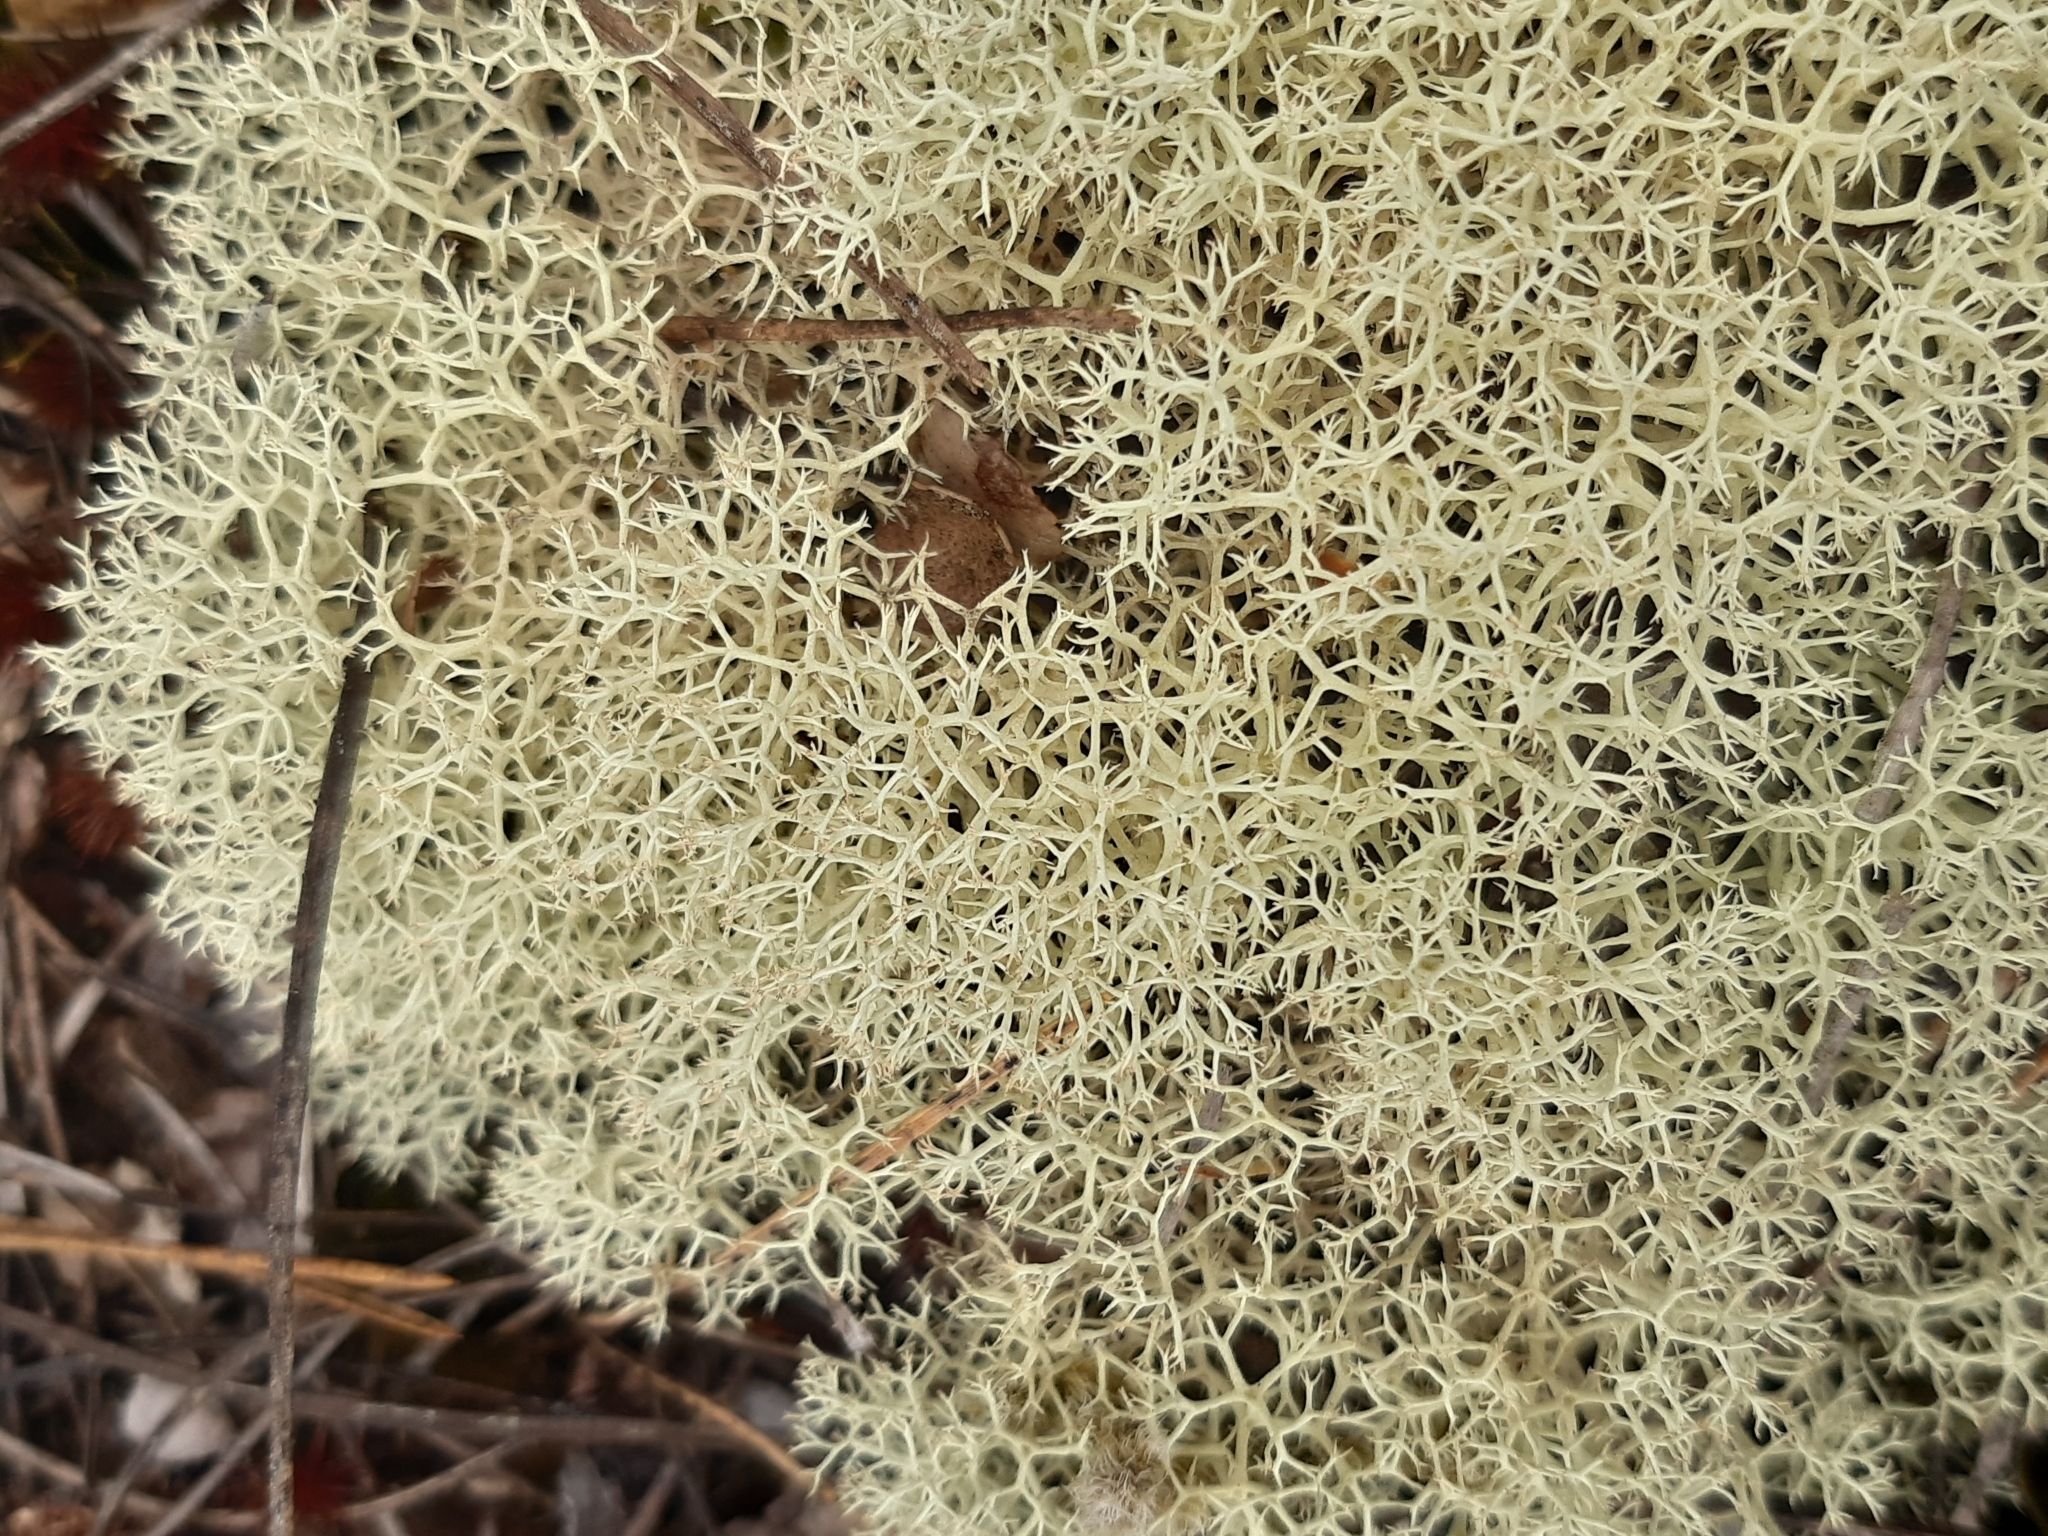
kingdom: Fungi
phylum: Ascomycota
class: Lecanoromycetes
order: Lecanorales
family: Cladoniaceae
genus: Cladonia
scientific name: Cladonia confusa
